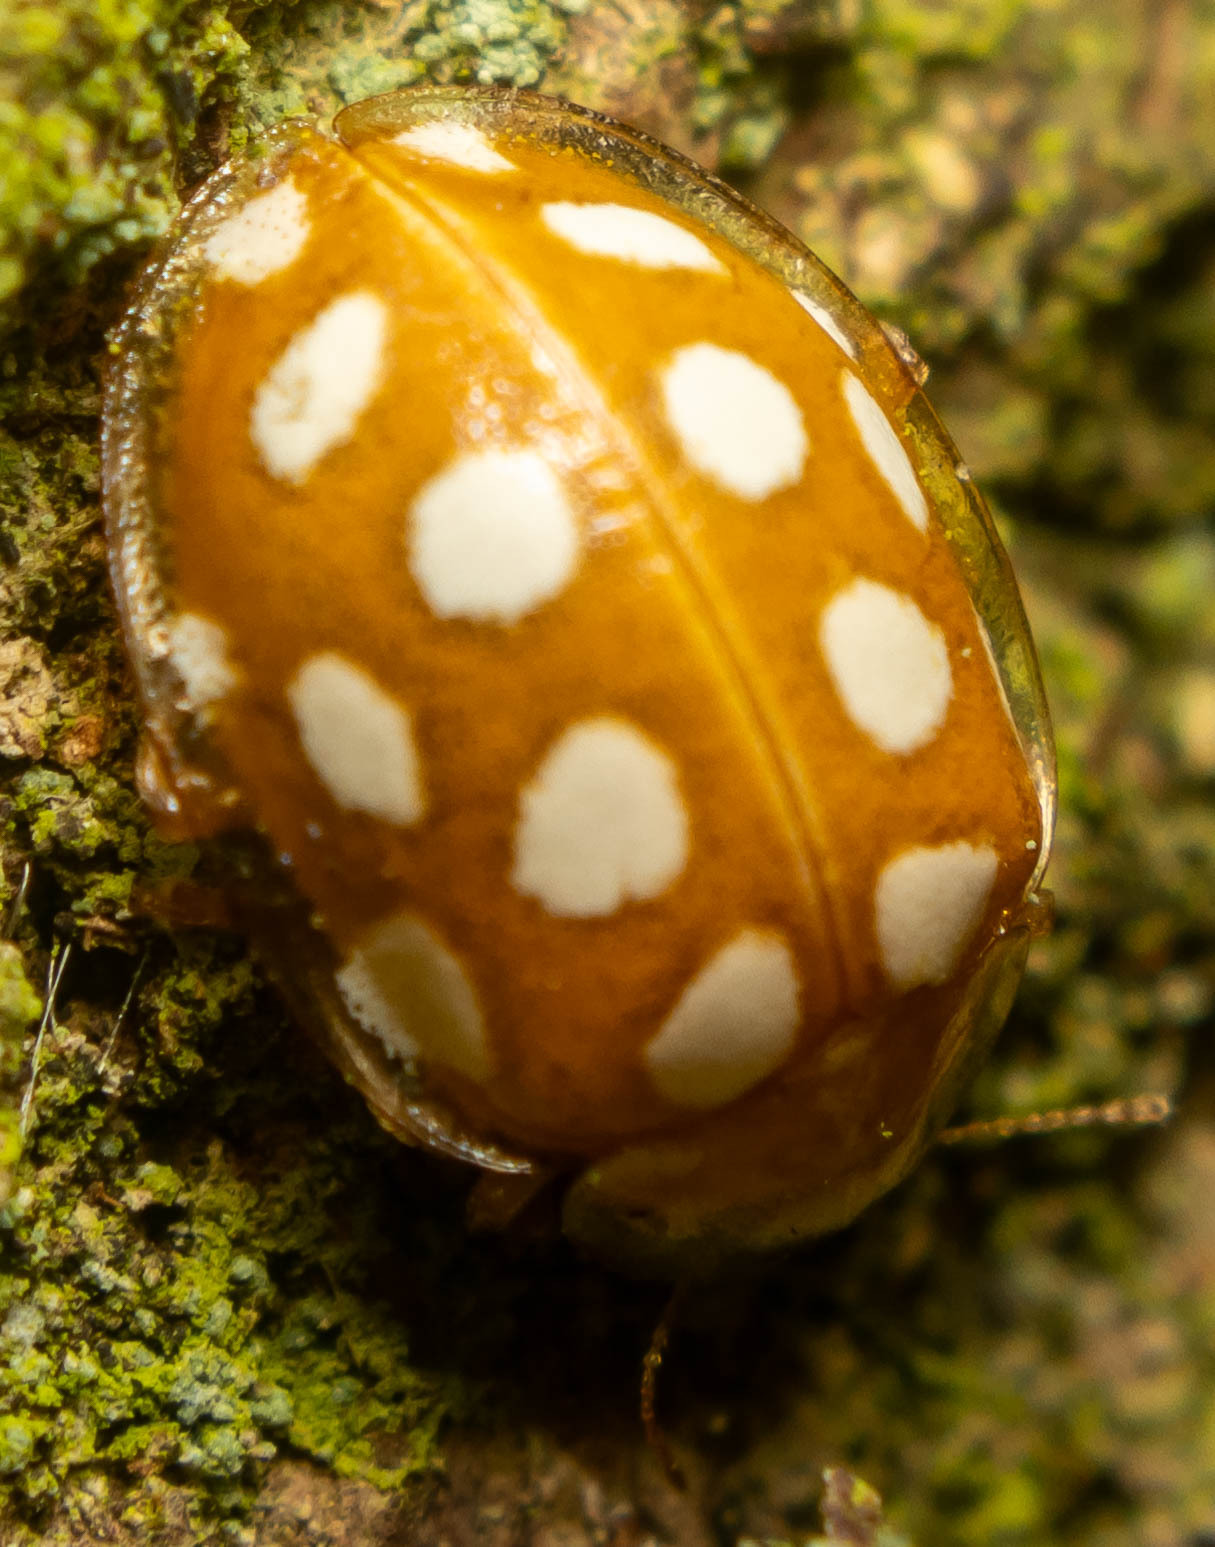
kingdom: Animalia
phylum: Arthropoda
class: Insecta
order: Coleoptera
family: Coccinellidae
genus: Halyzia
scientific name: Halyzia sedecimguttata
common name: Orange ladybird
